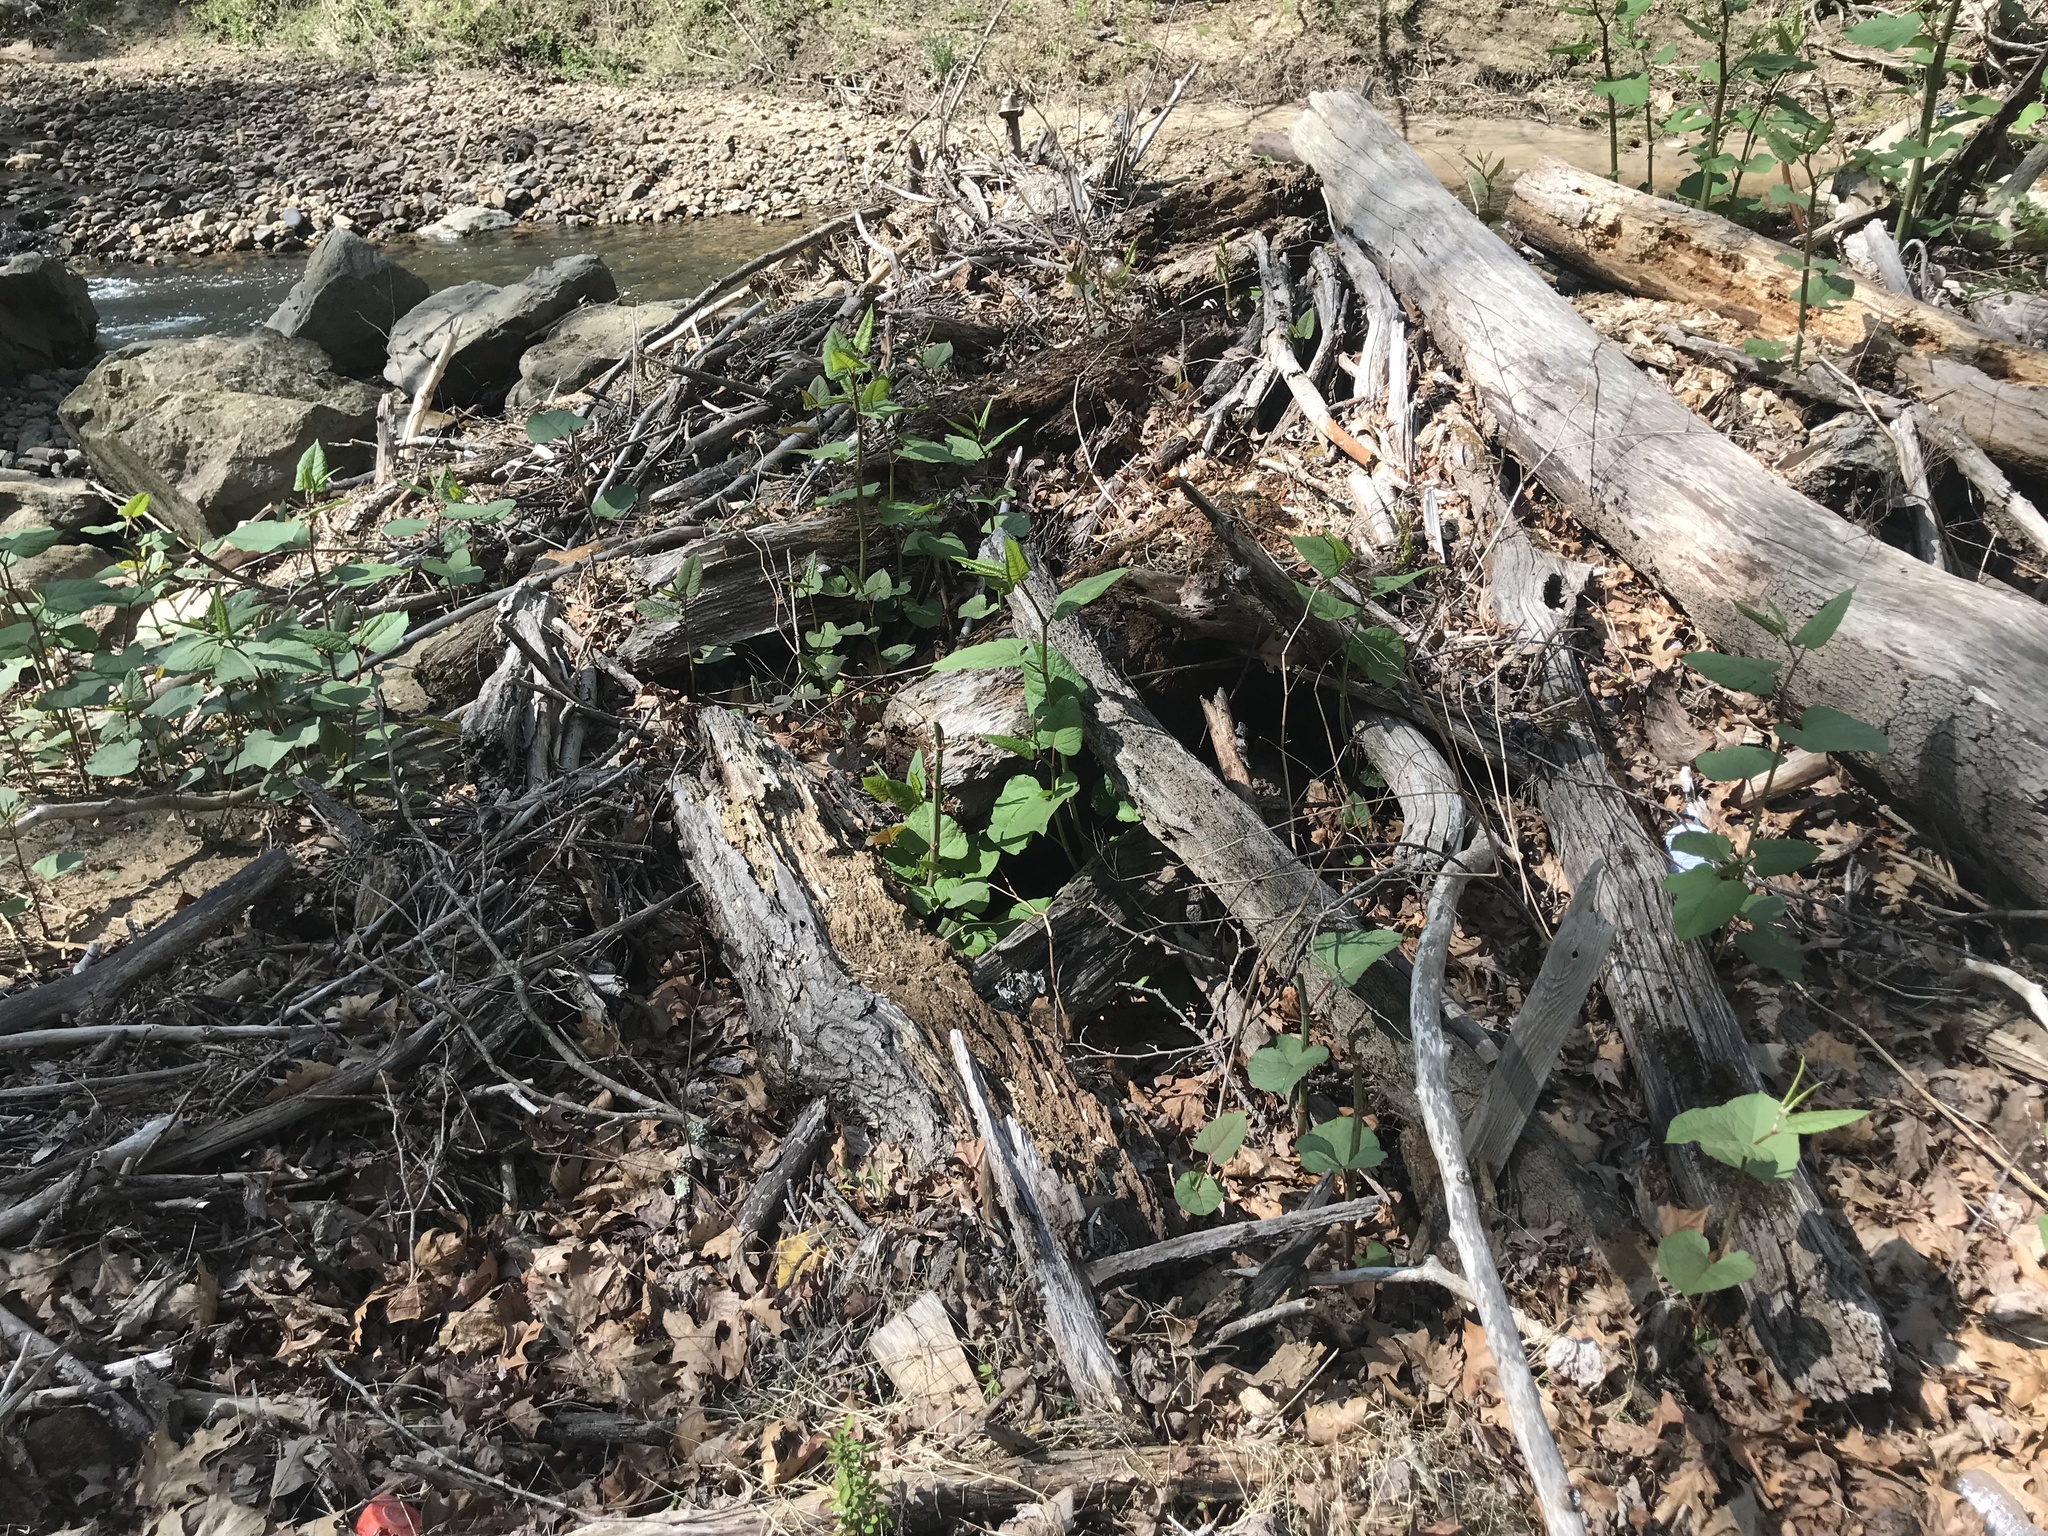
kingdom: Plantae
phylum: Tracheophyta
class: Magnoliopsida
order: Caryophyllales
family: Polygonaceae
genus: Reynoutria
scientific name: Reynoutria japonica
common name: Japanese knotweed
